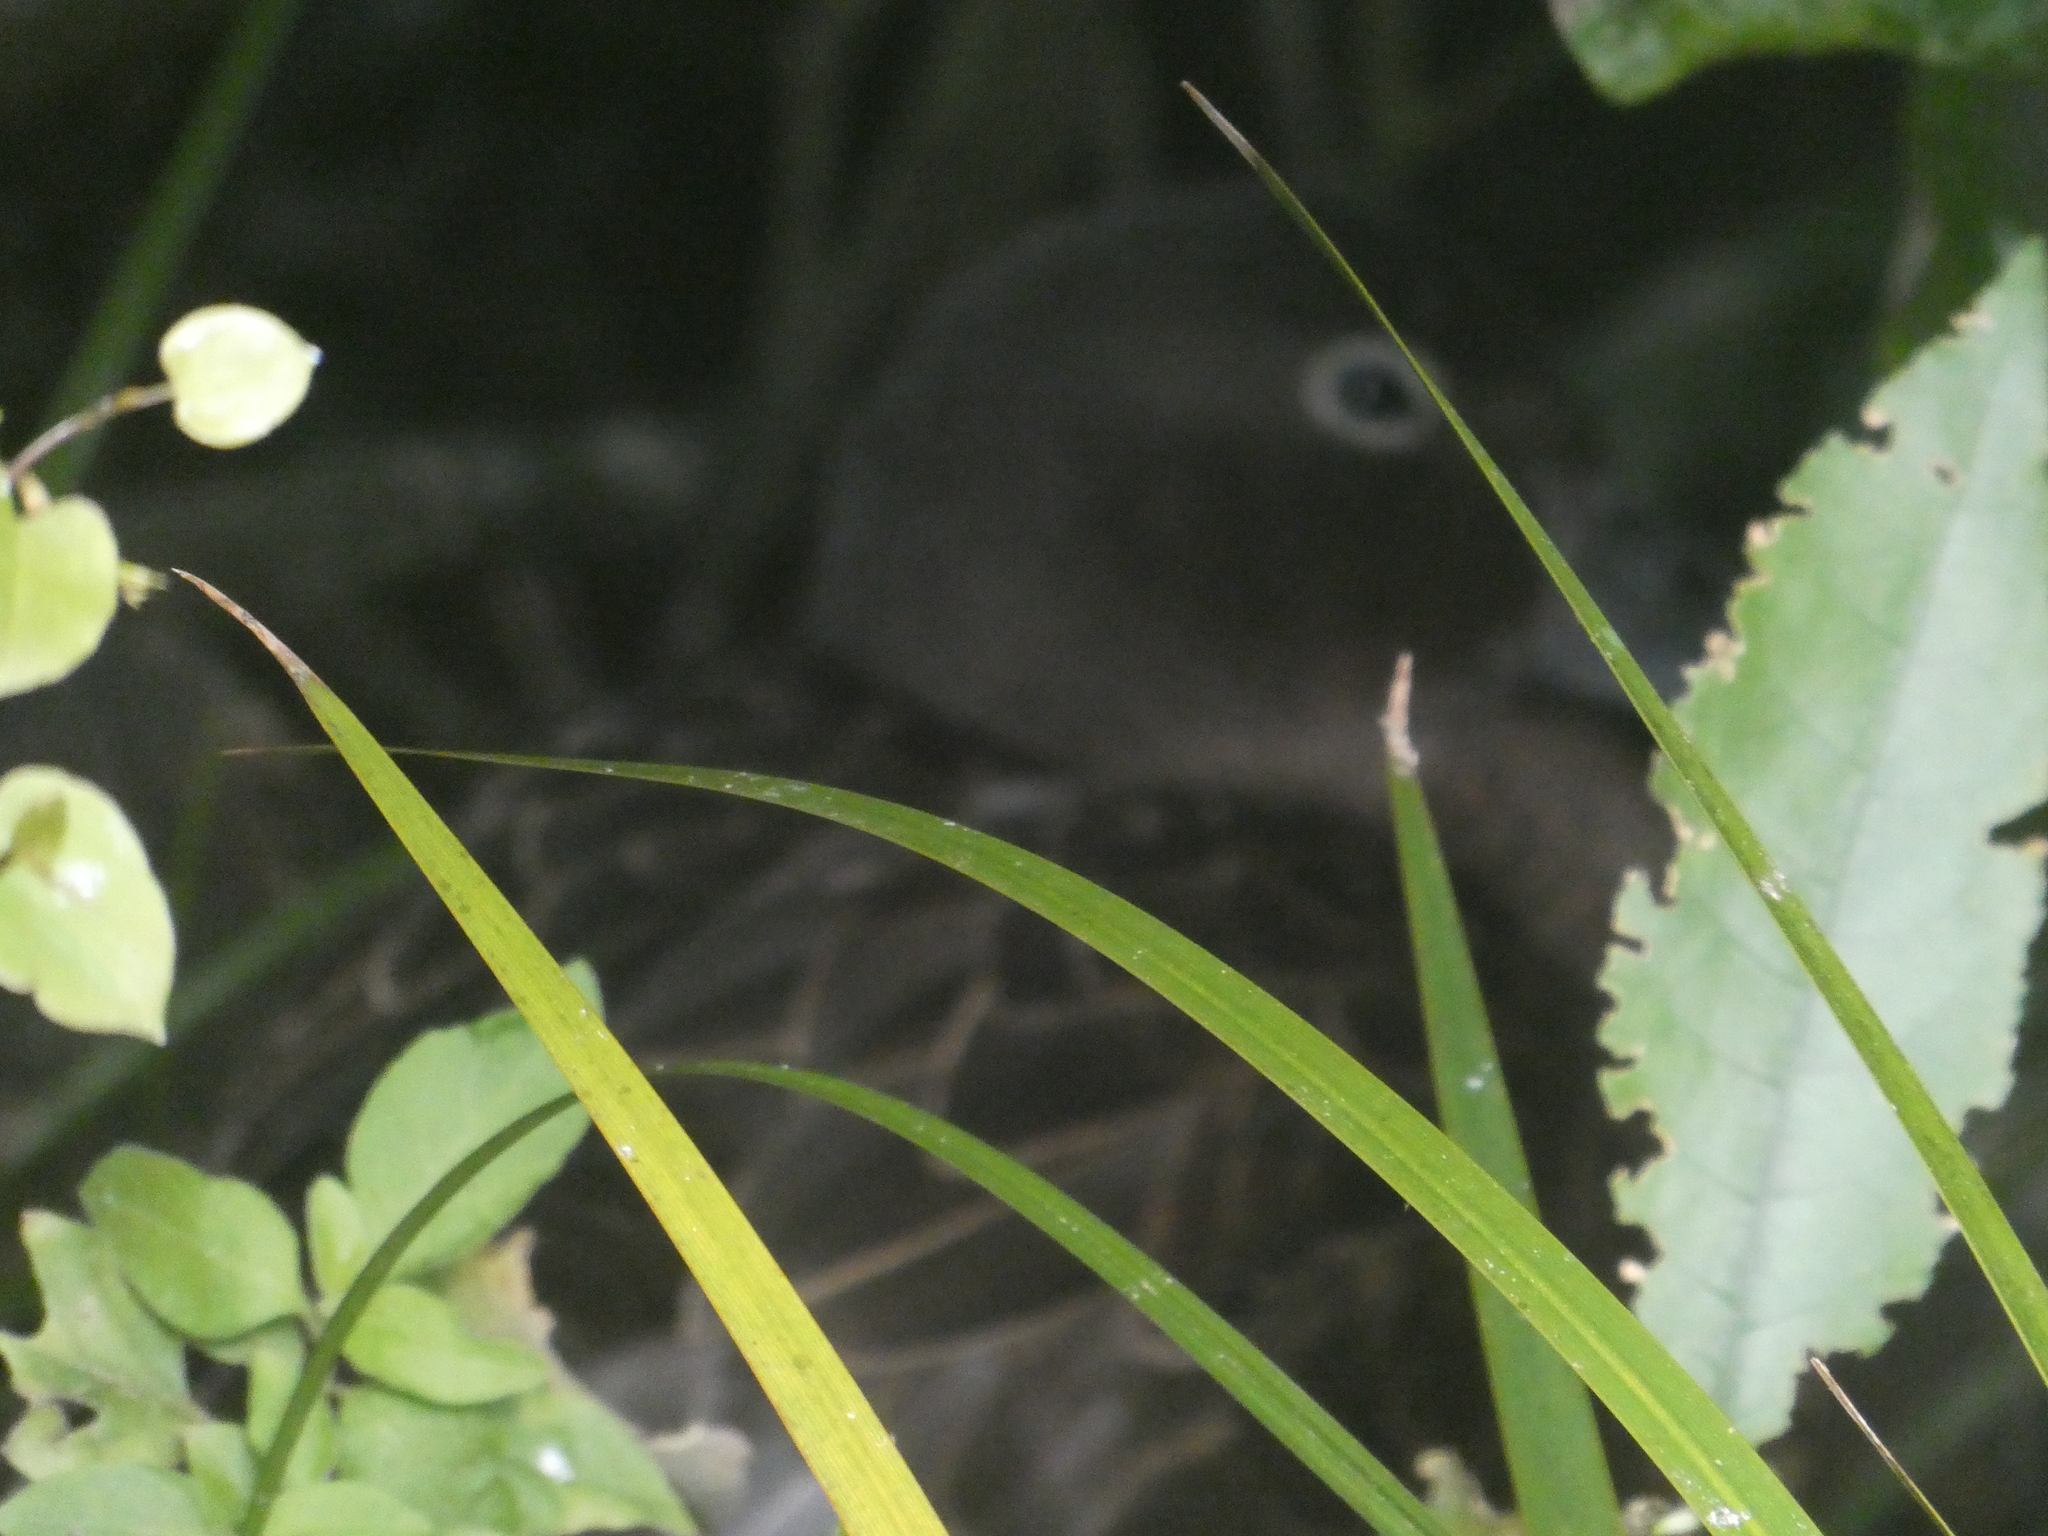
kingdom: Animalia
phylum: Chordata
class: Aves
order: Anseriformes
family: Anatidae
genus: Anas
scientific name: Anas chlorotis
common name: Brown teal
